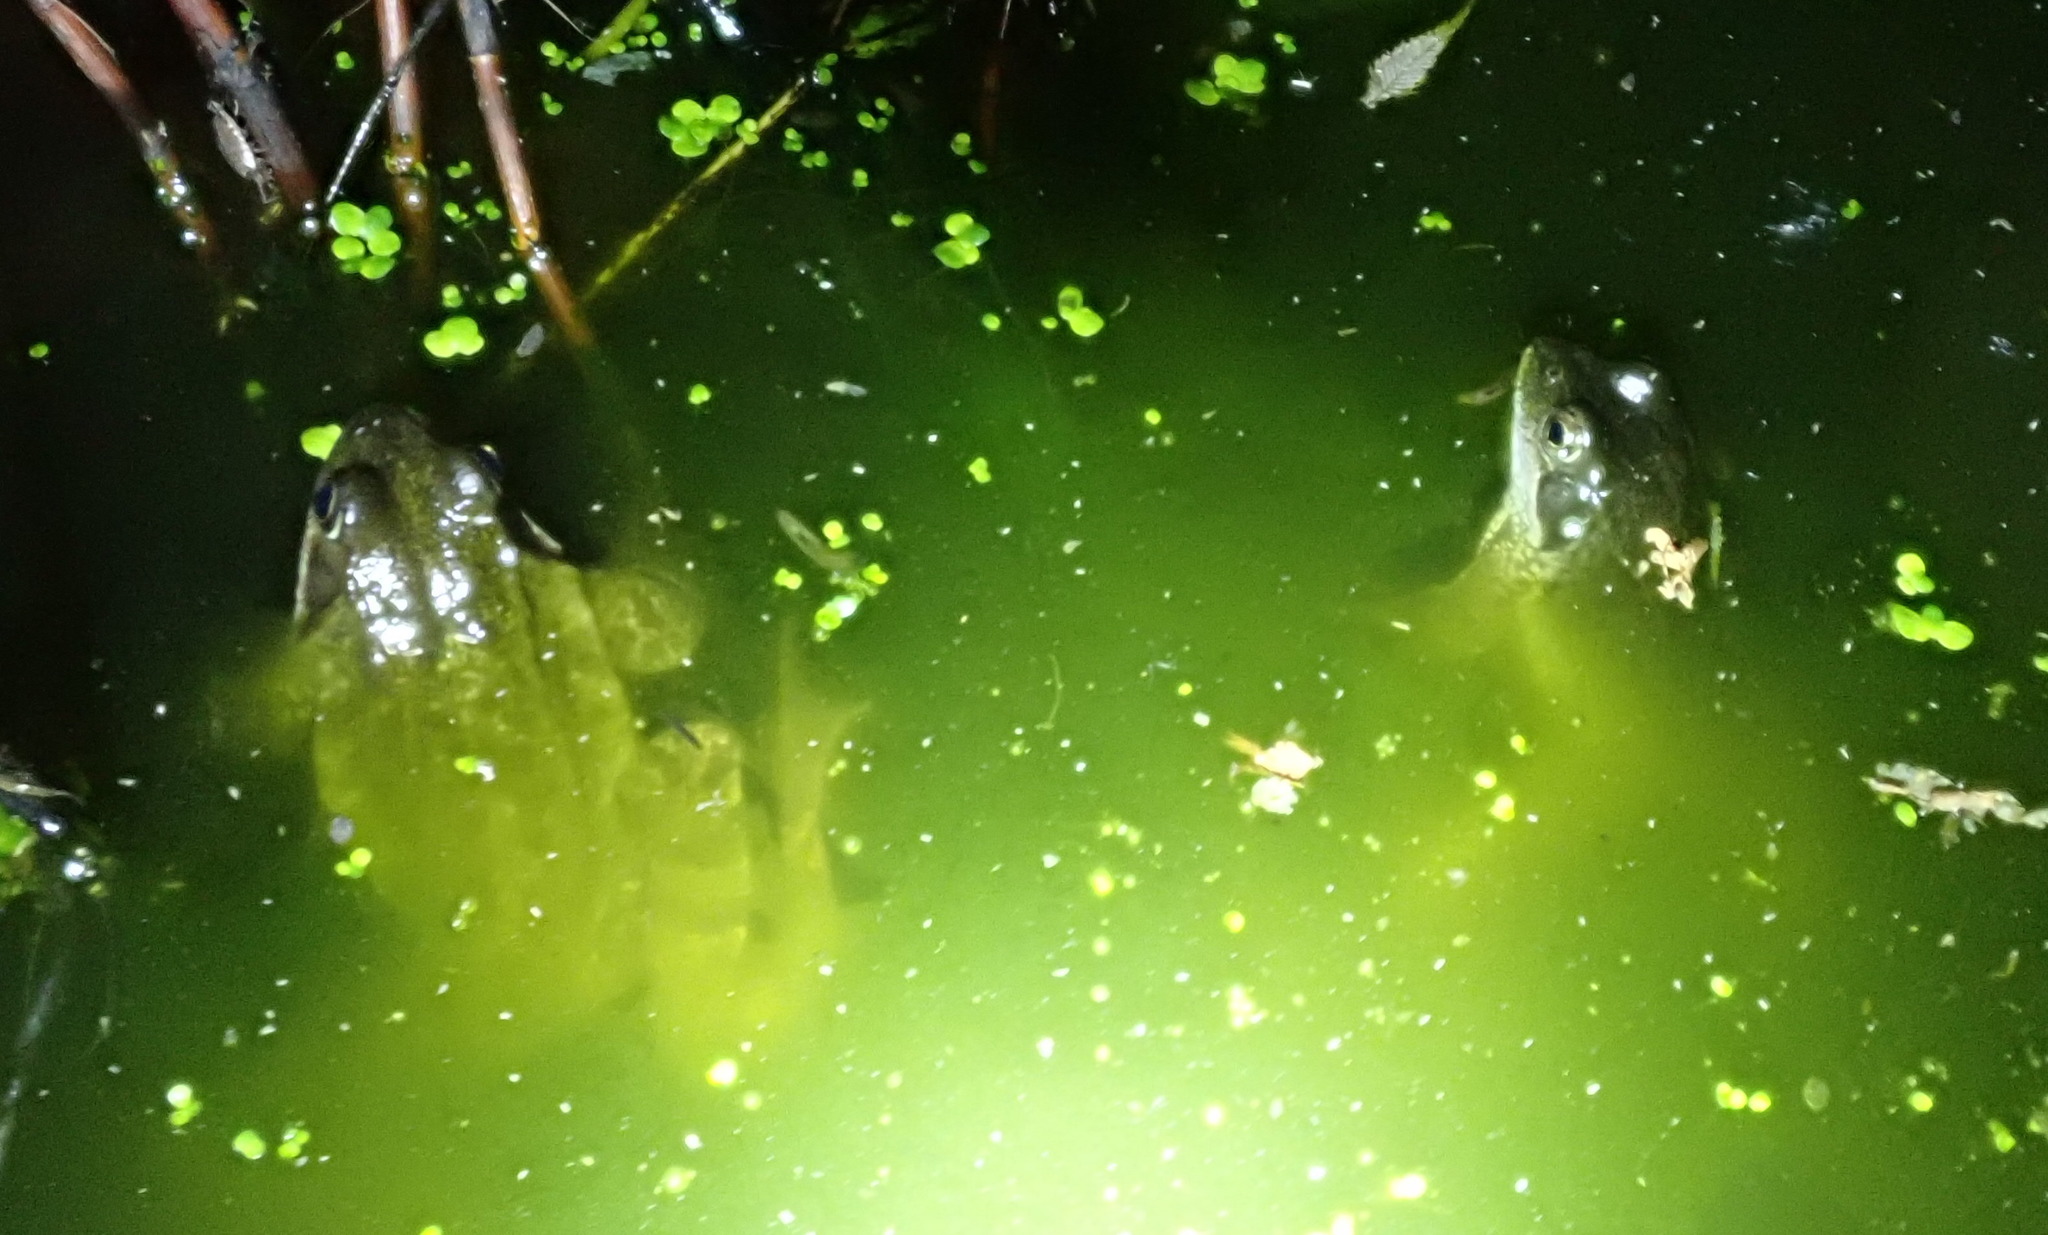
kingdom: Animalia
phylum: Chordata
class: Amphibia
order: Anura
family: Ranidae
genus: Rana
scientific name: Rana temporaria
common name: Common frog
